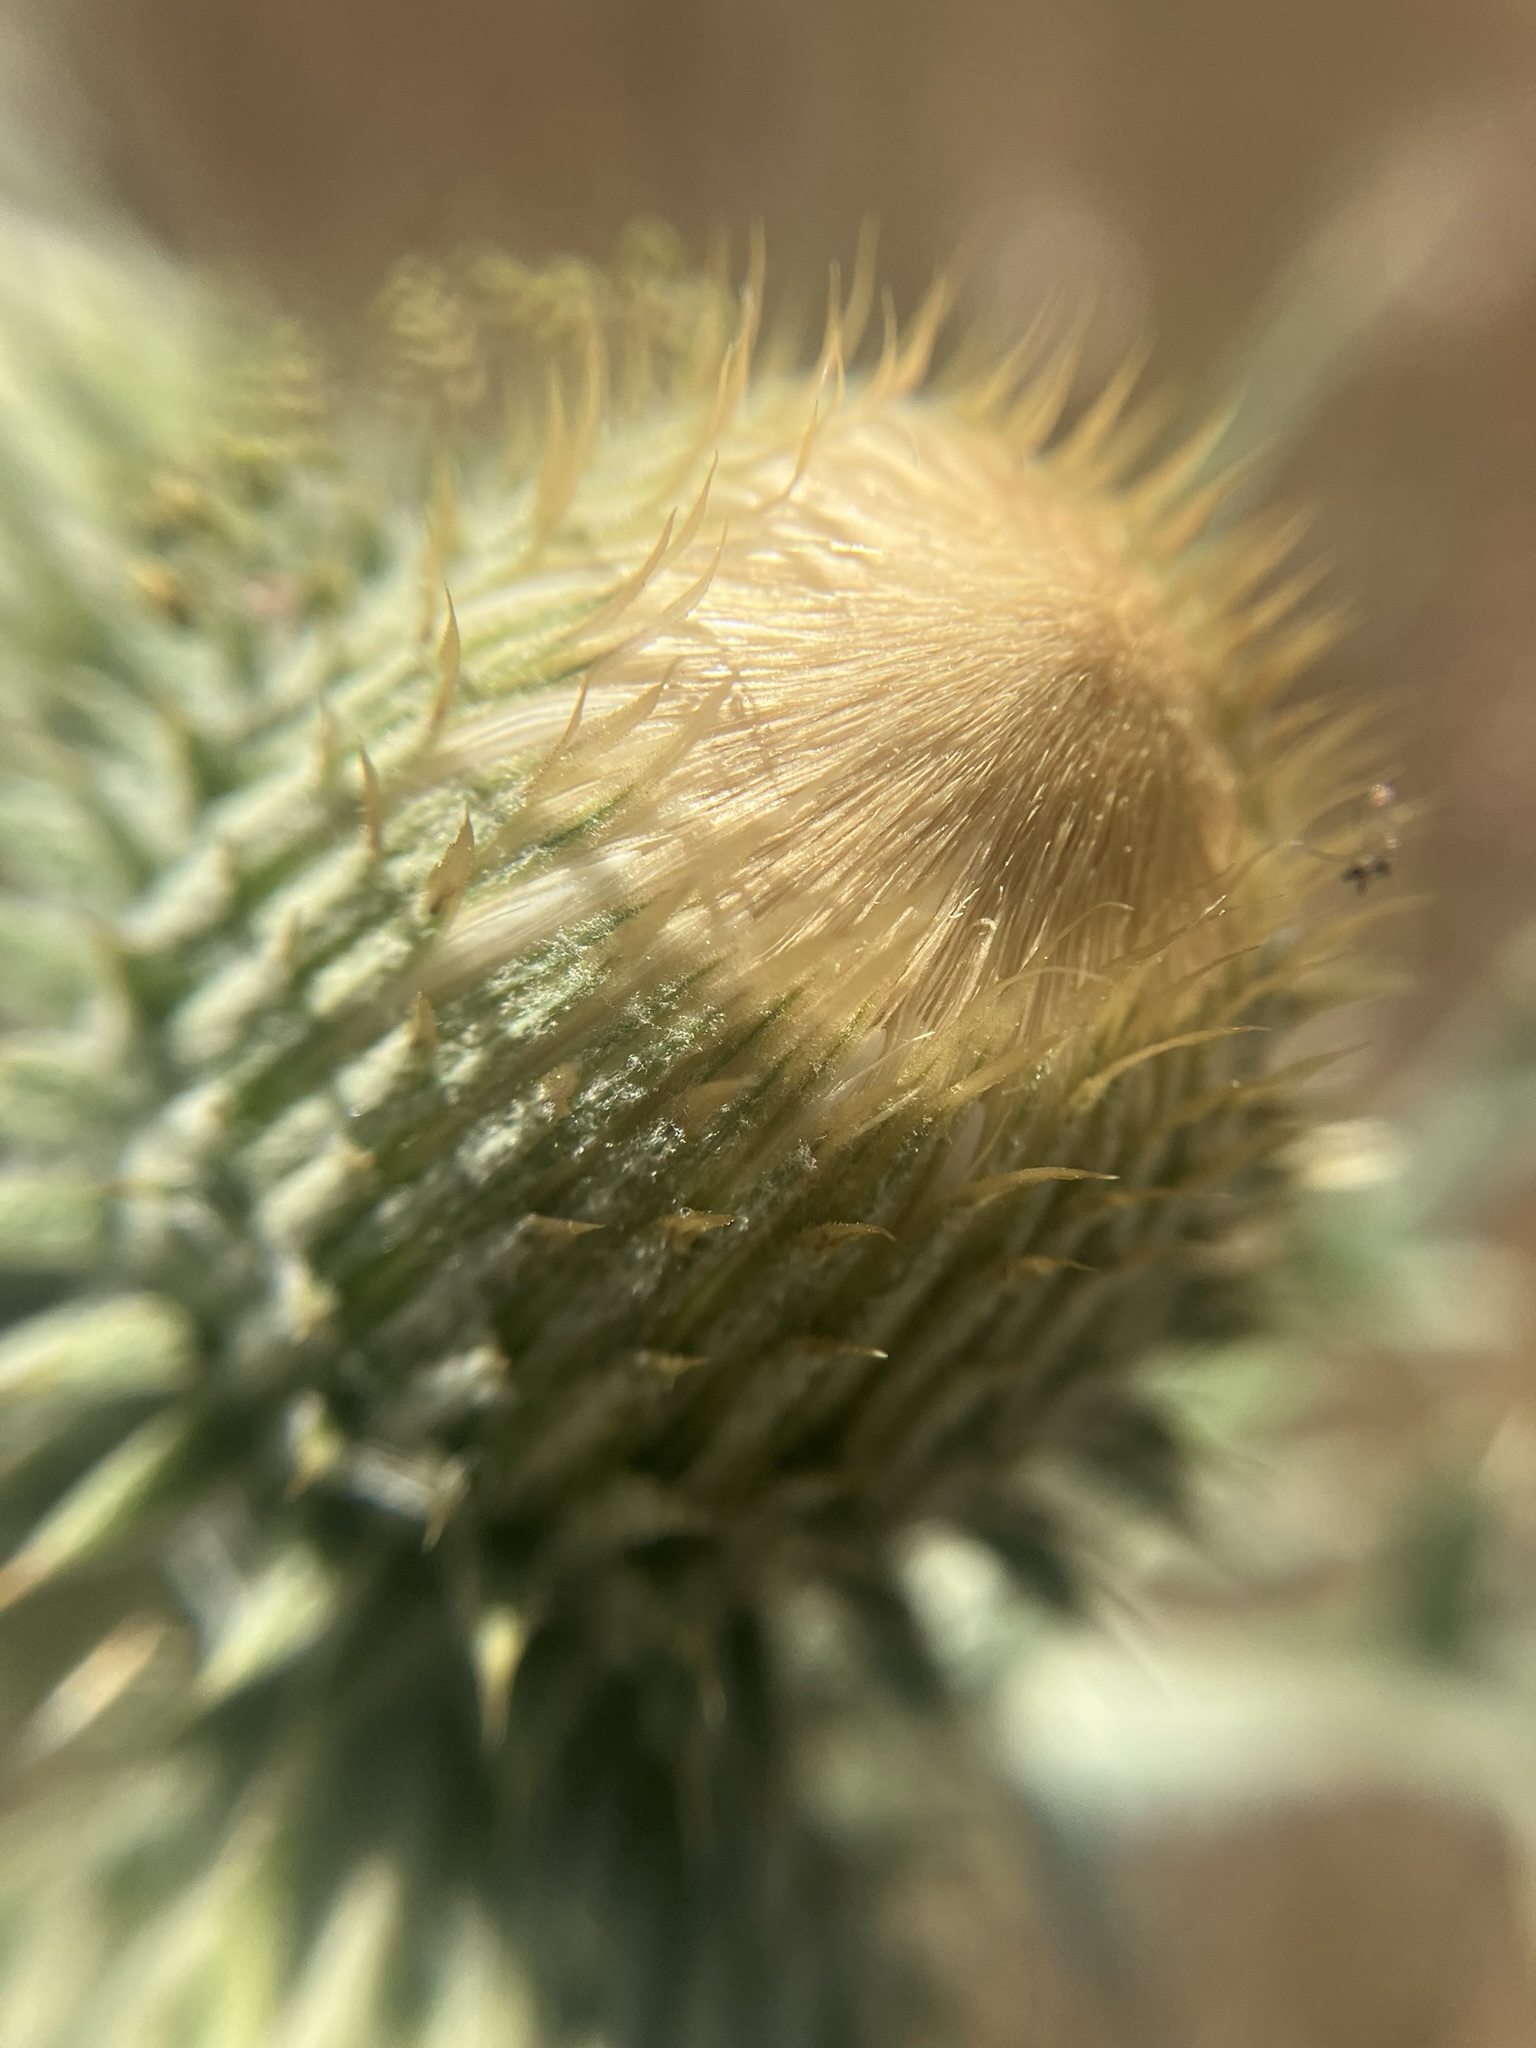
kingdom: Plantae
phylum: Tracheophyta
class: Magnoliopsida
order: Asterales
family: Asteraceae
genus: Cirsium
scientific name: Cirsium cymosum
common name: Peregrine thistle
